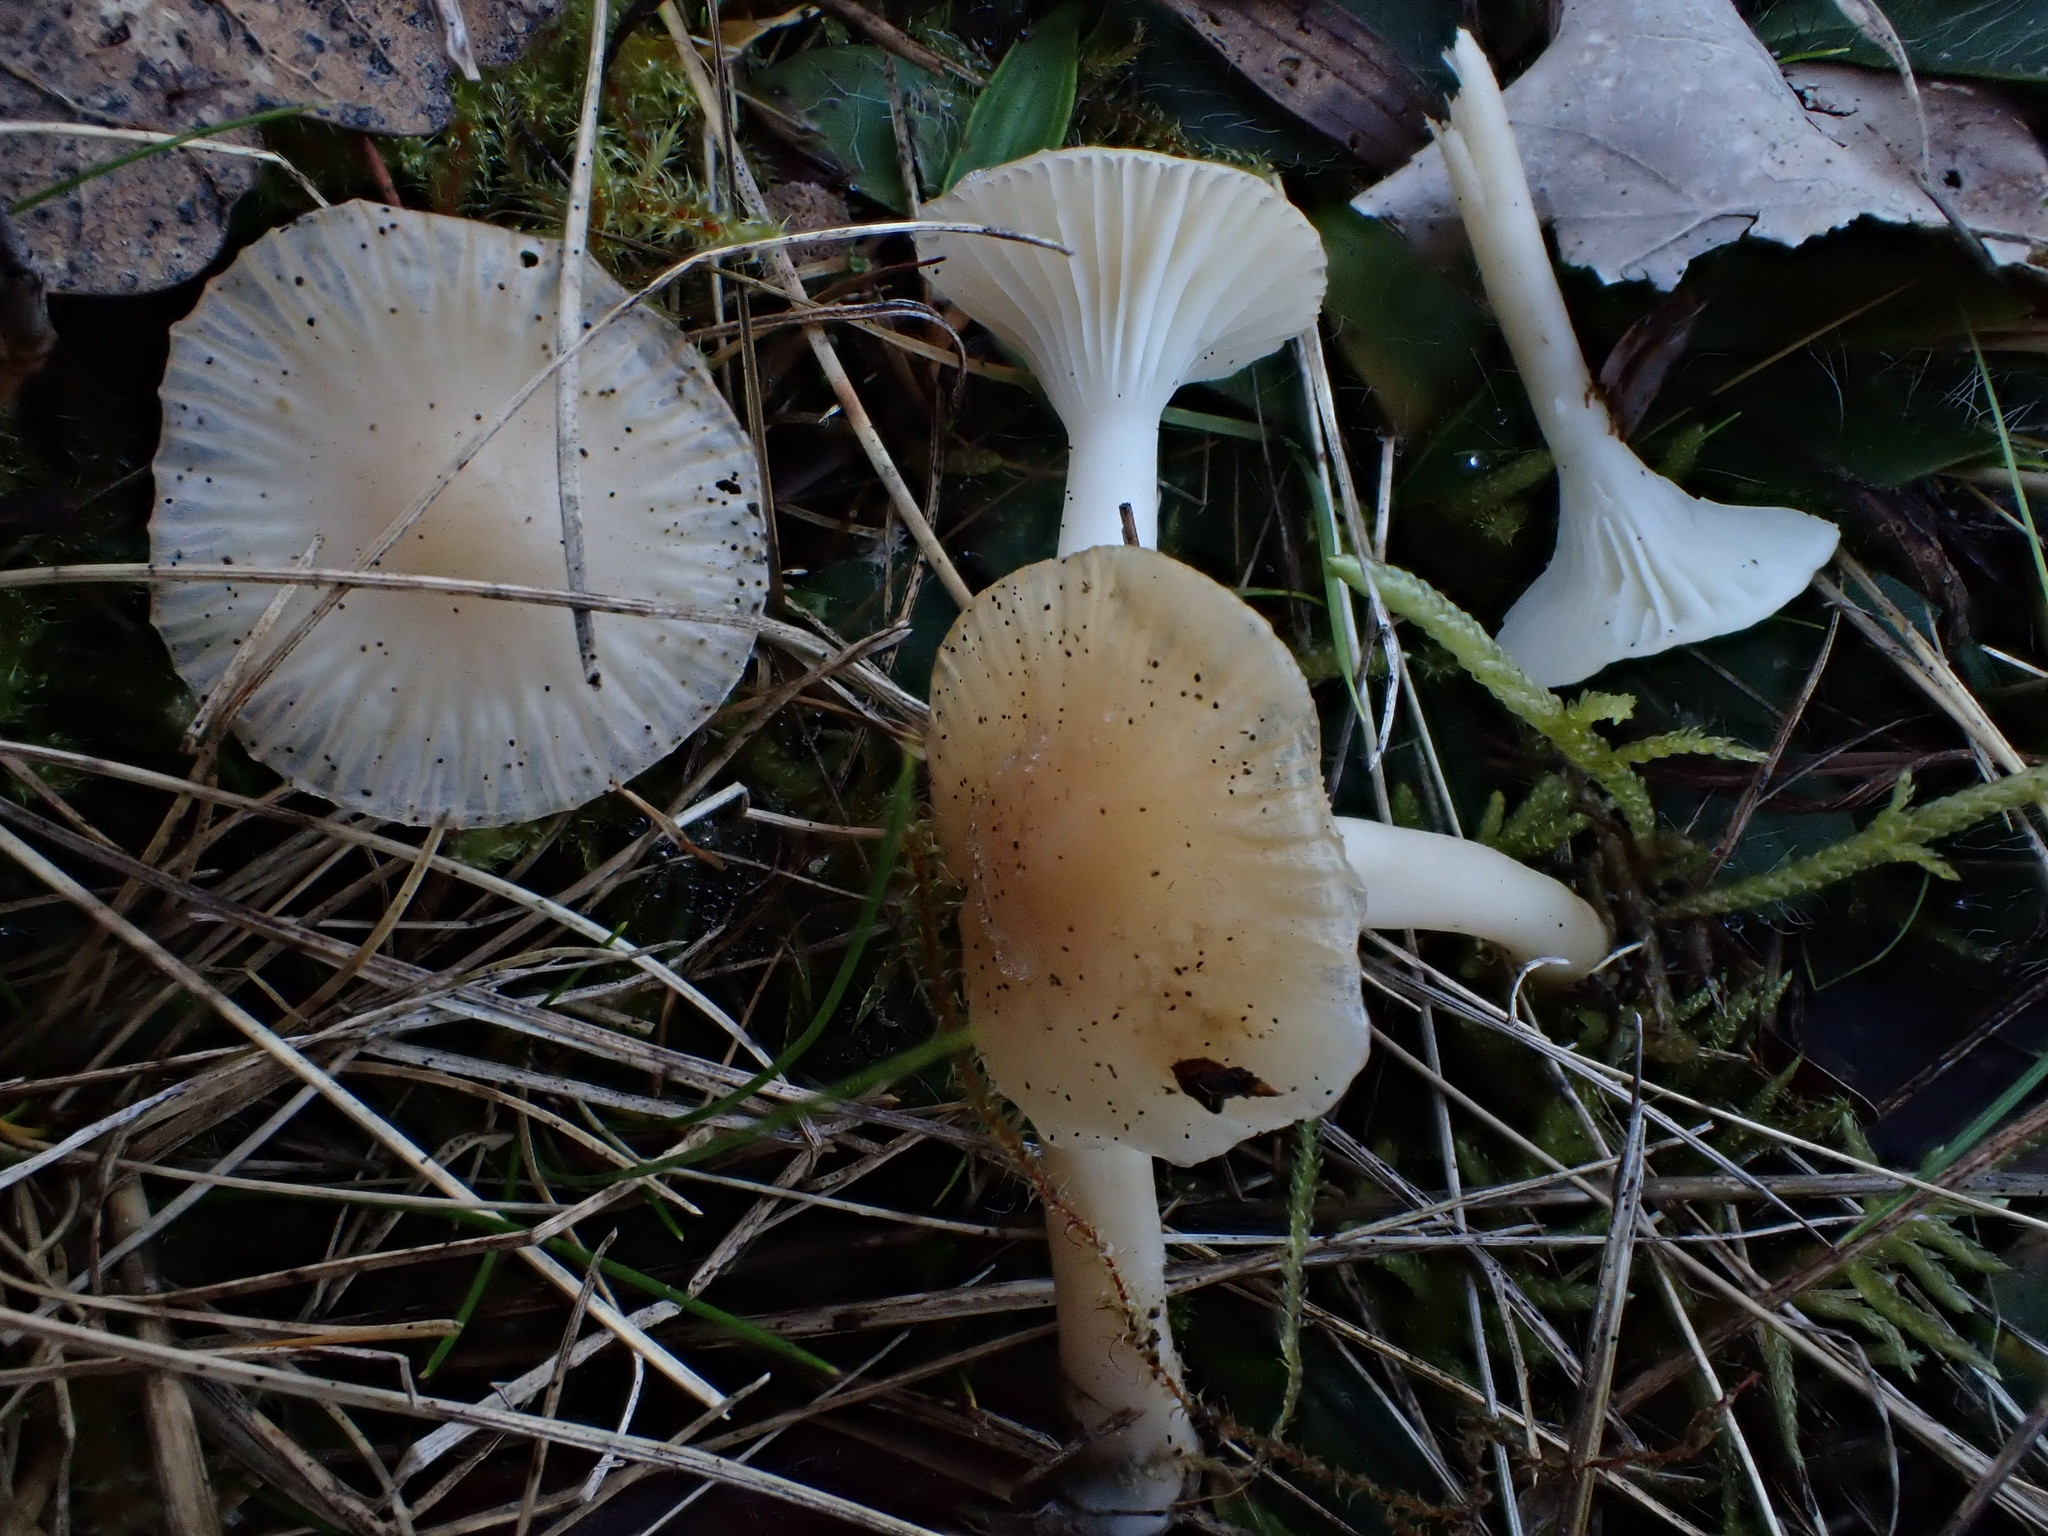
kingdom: Fungi
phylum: Basidiomycota
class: Agaricomycetes
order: Agaricales
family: Hygrophoraceae
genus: Cuphophyllus
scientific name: Cuphophyllus virgineus
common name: Snowy waxcap
